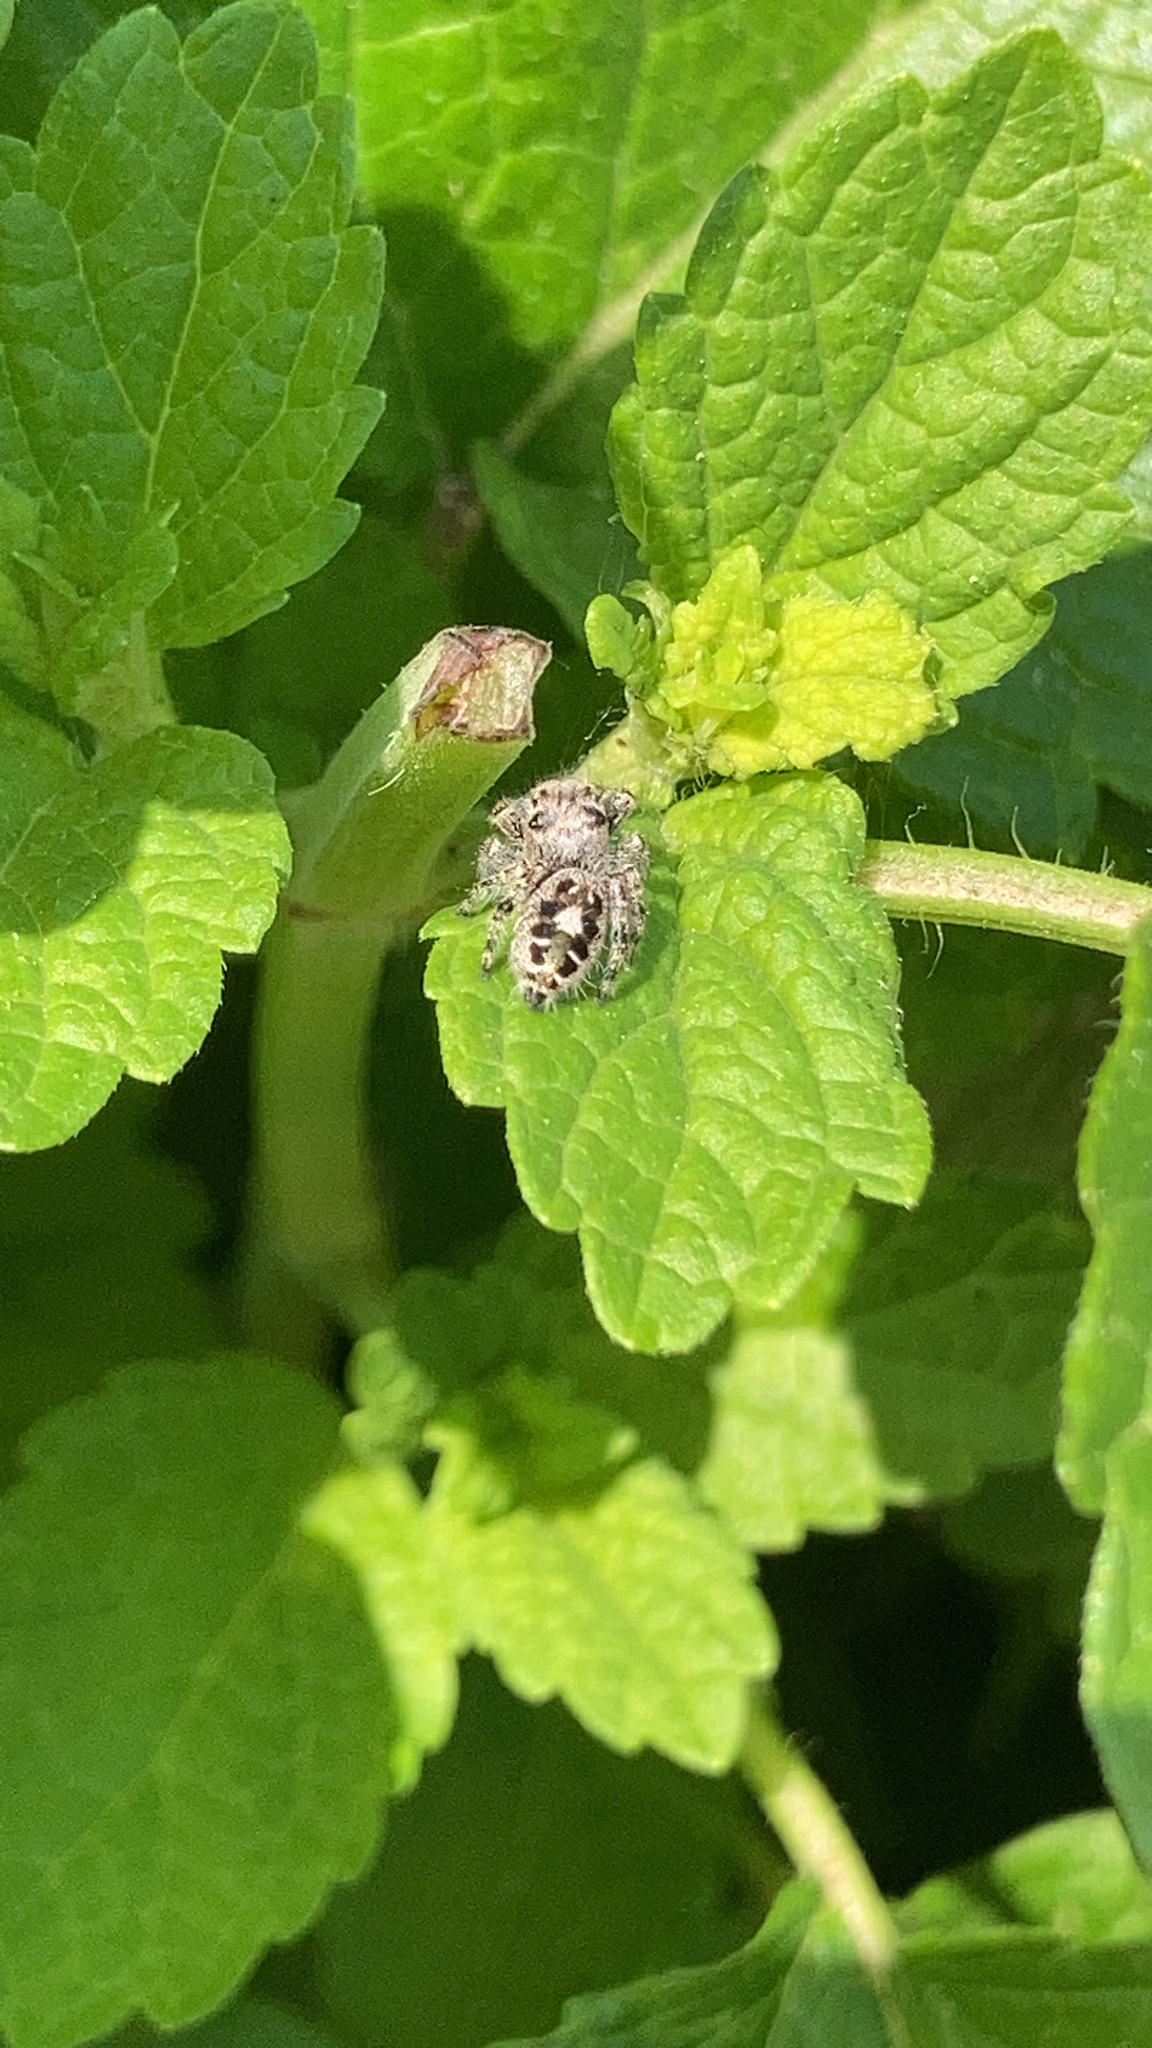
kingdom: Animalia
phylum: Arthropoda
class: Arachnida
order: Araneae
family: Salticidae
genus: Phidippus
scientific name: Phidippus putnami
